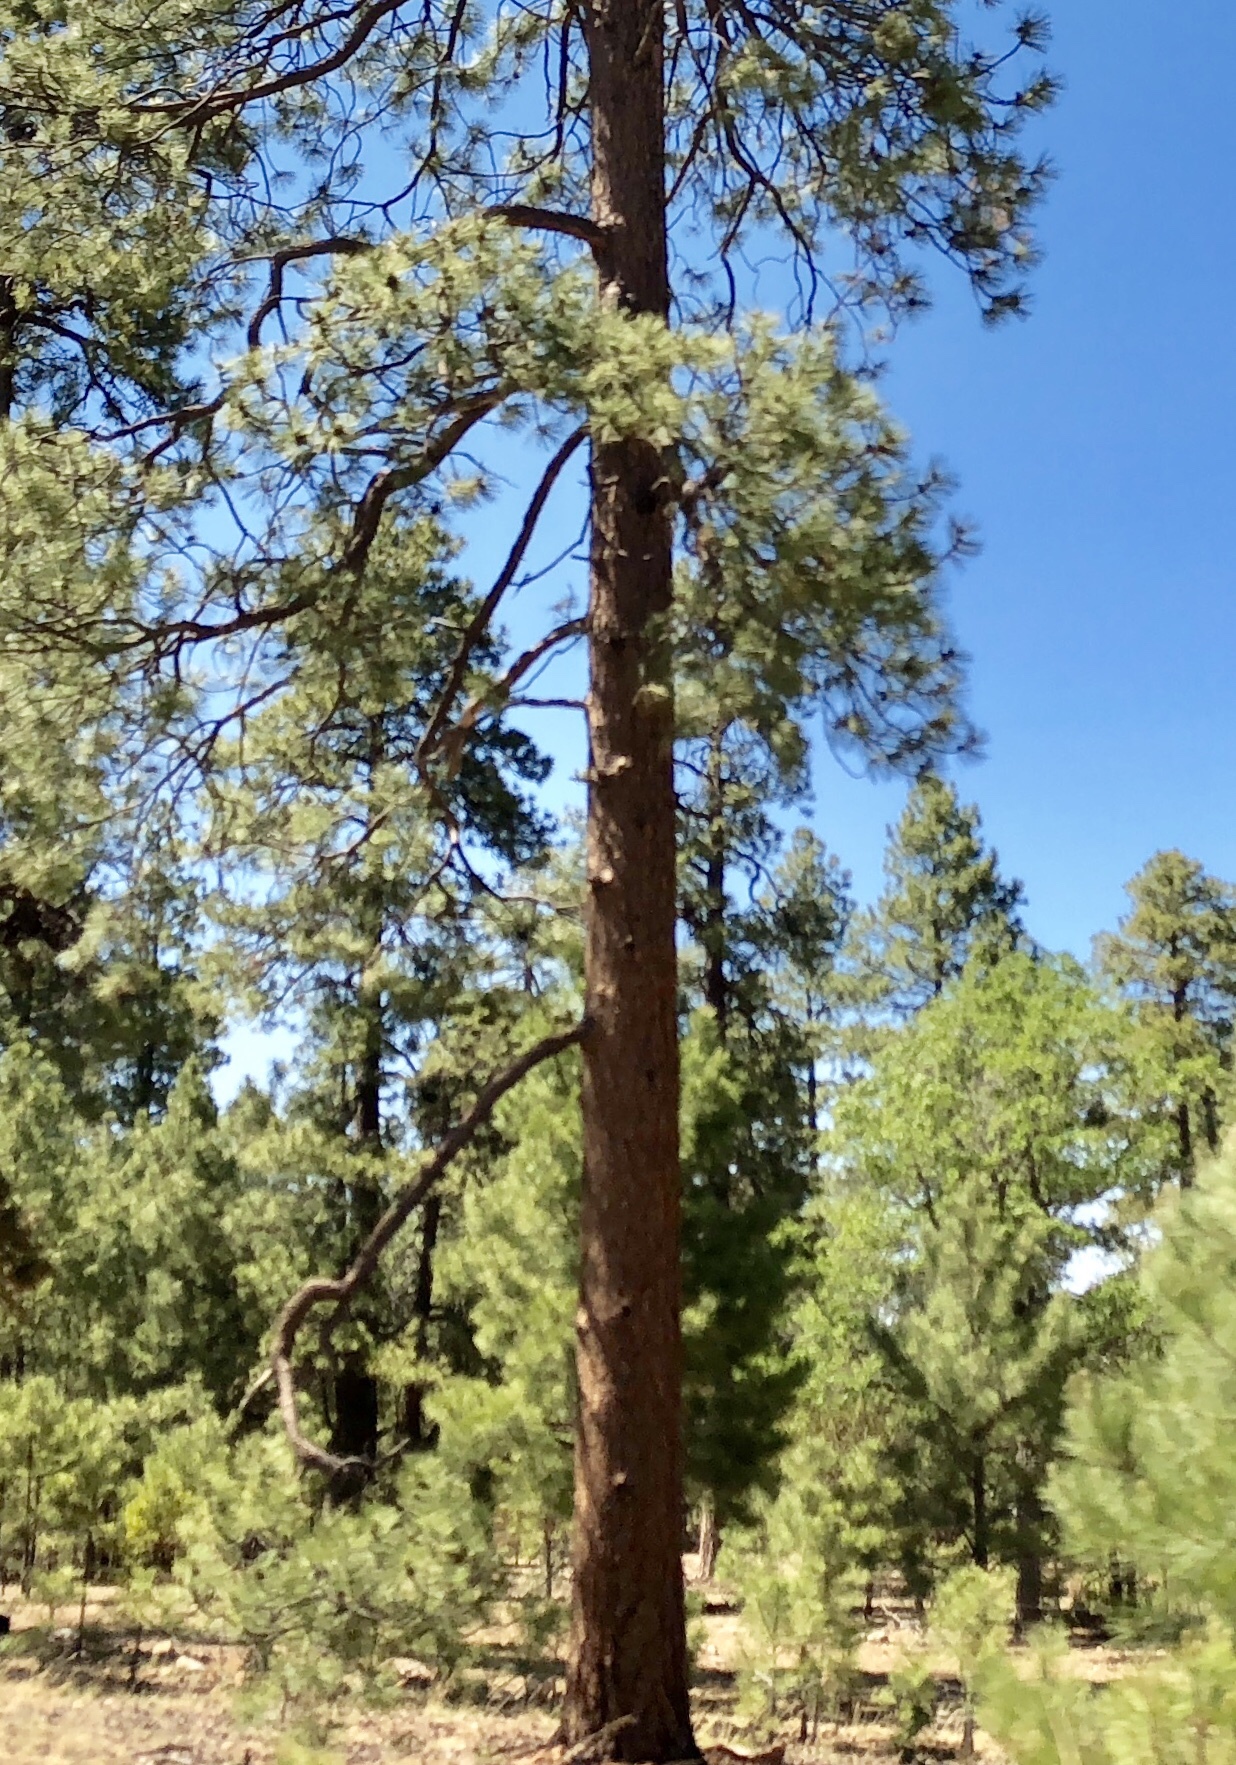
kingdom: Plantae
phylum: Tracheophyta
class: Pinopsida
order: Pinales
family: Pinaceae
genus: Pinus
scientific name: Pinus ponderosa
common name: Western yellow-pine
